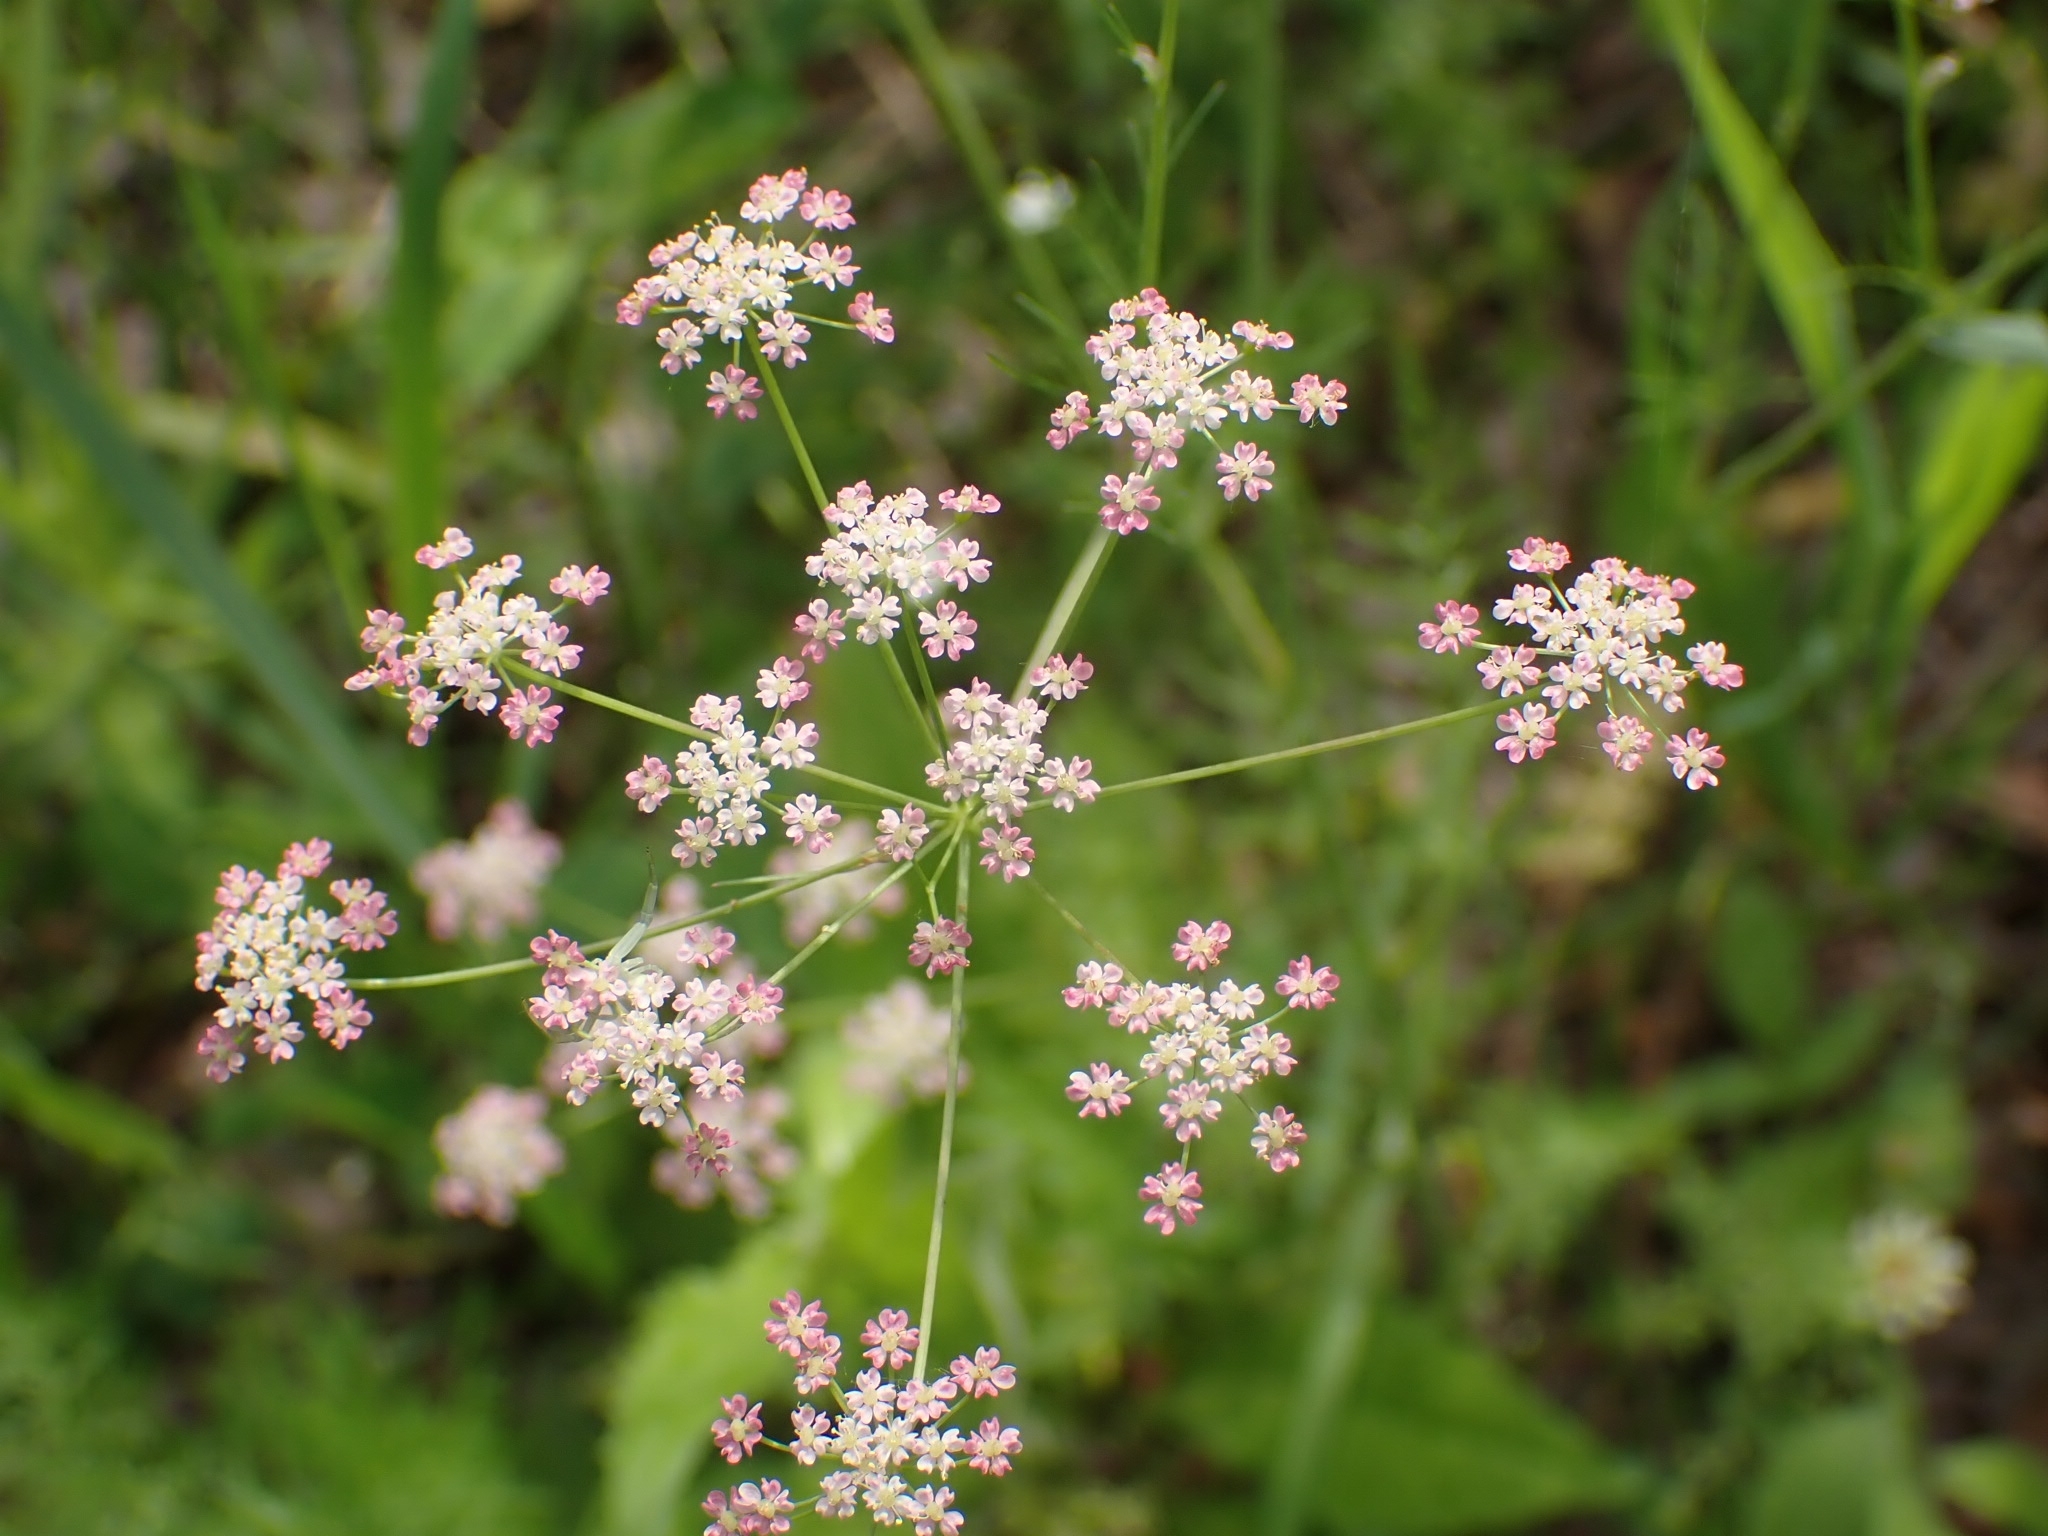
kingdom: Plantae
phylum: Tracheophyta
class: Magnoliopsida
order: Apiales
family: Apiaceae
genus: Carum
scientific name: Carum carvi
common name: Caraway
